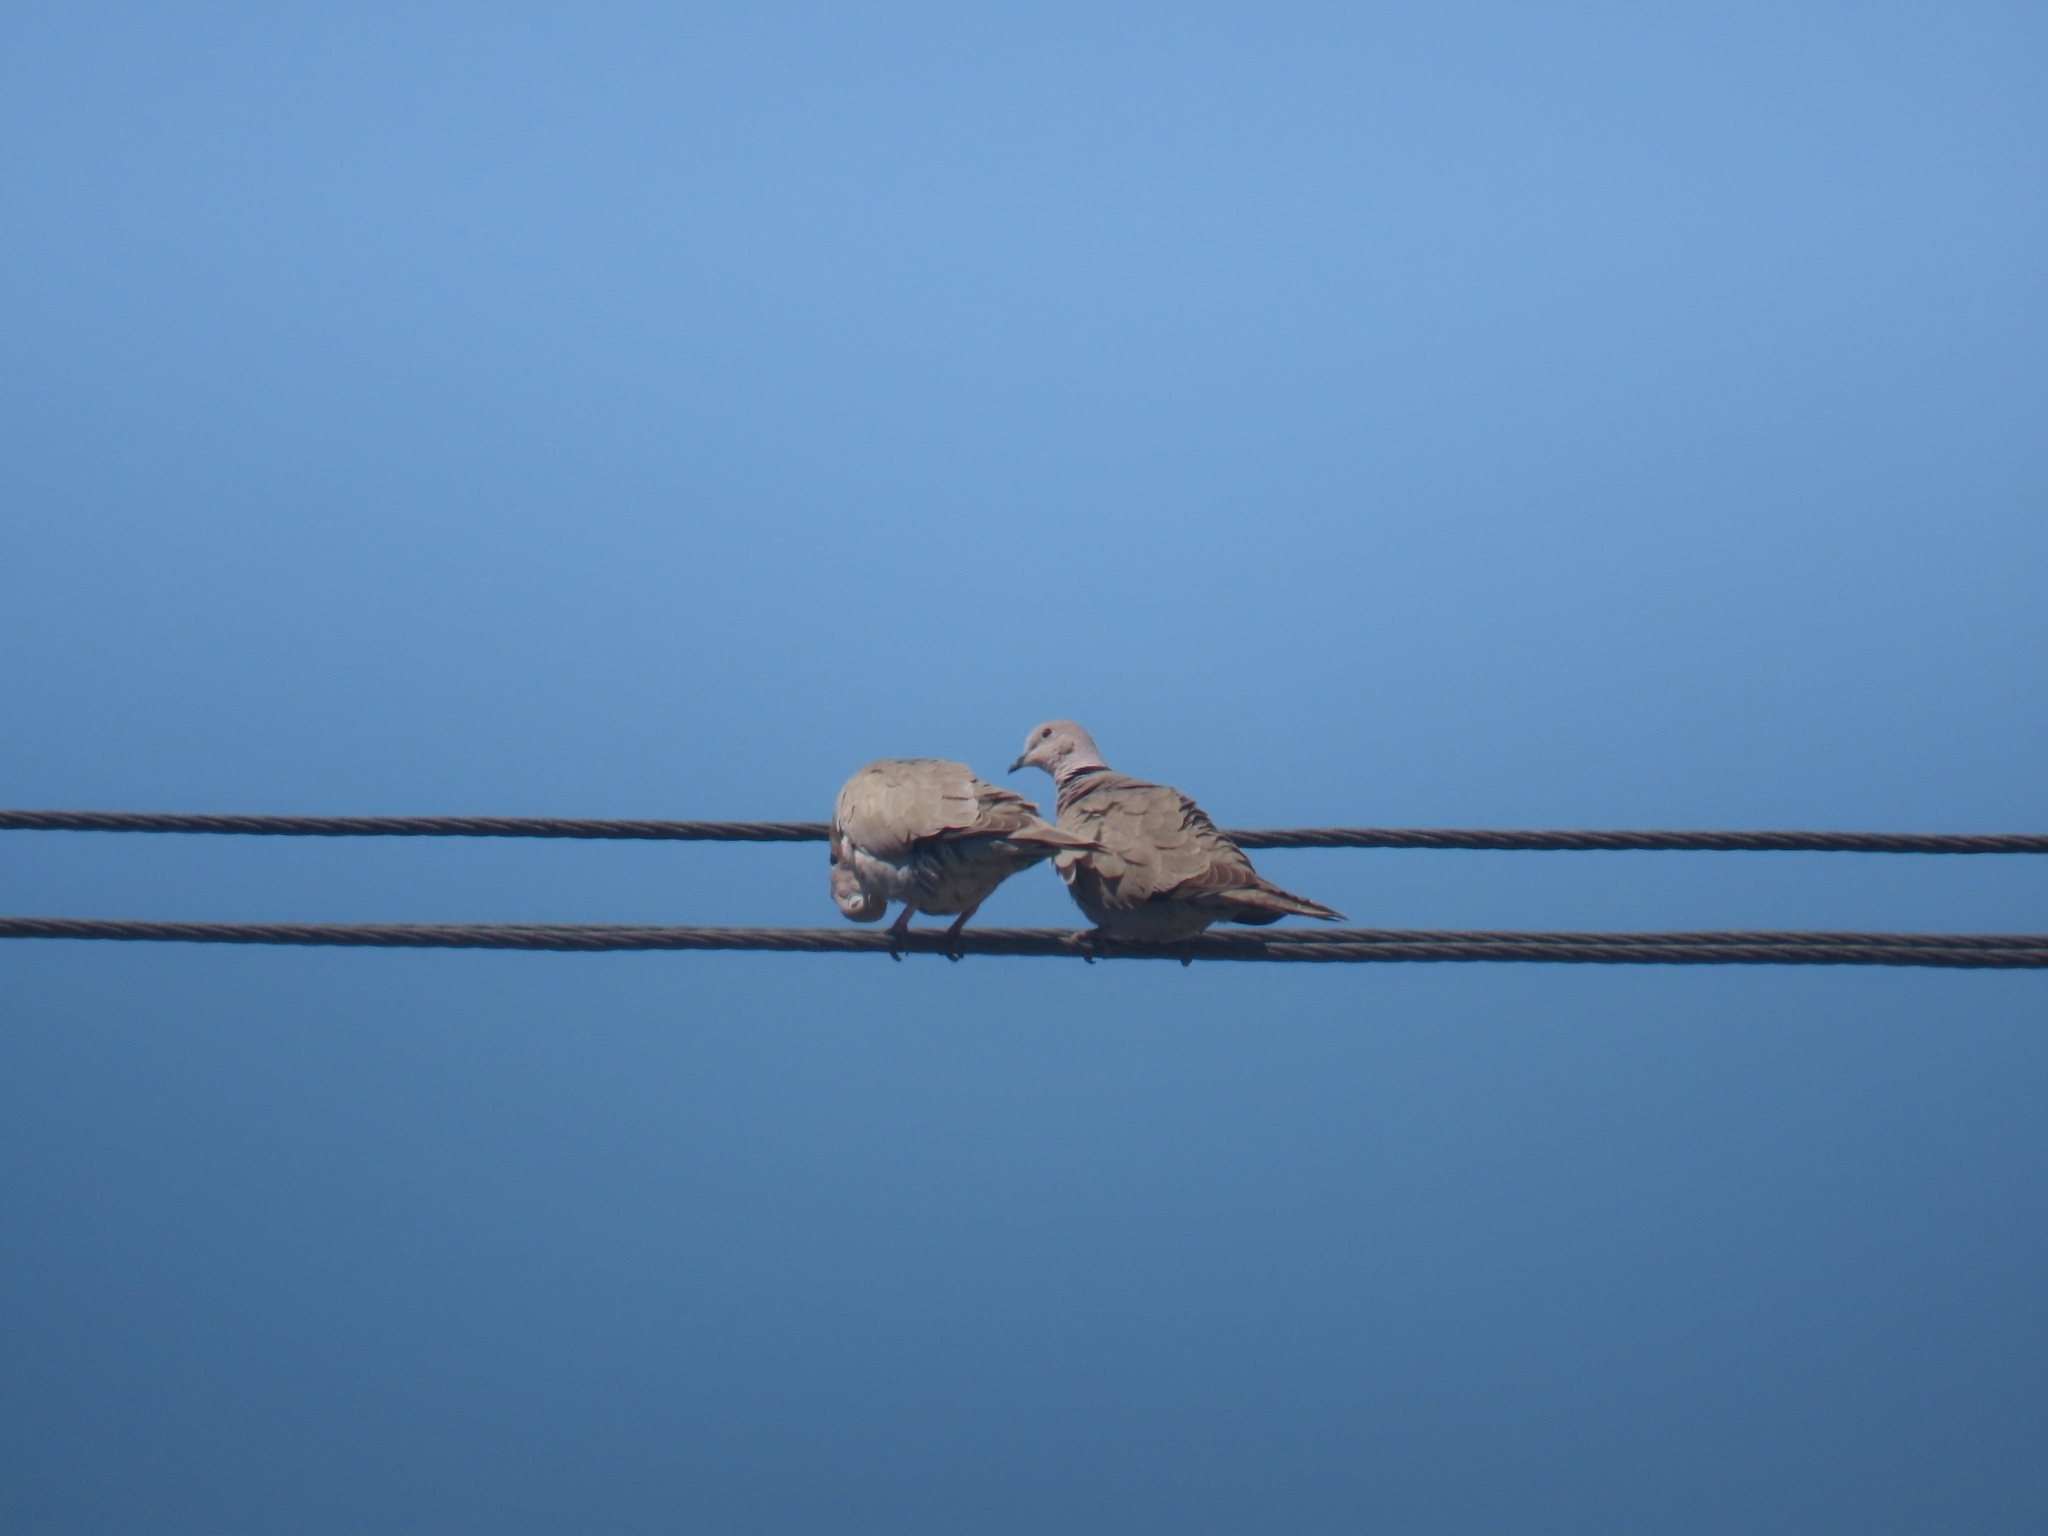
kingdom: Animalia
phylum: Chordata
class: Aves
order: Columbiformes
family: Columbidae
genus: Streptopelia
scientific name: Streptopelia decaocto
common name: Eurasian collared dove
